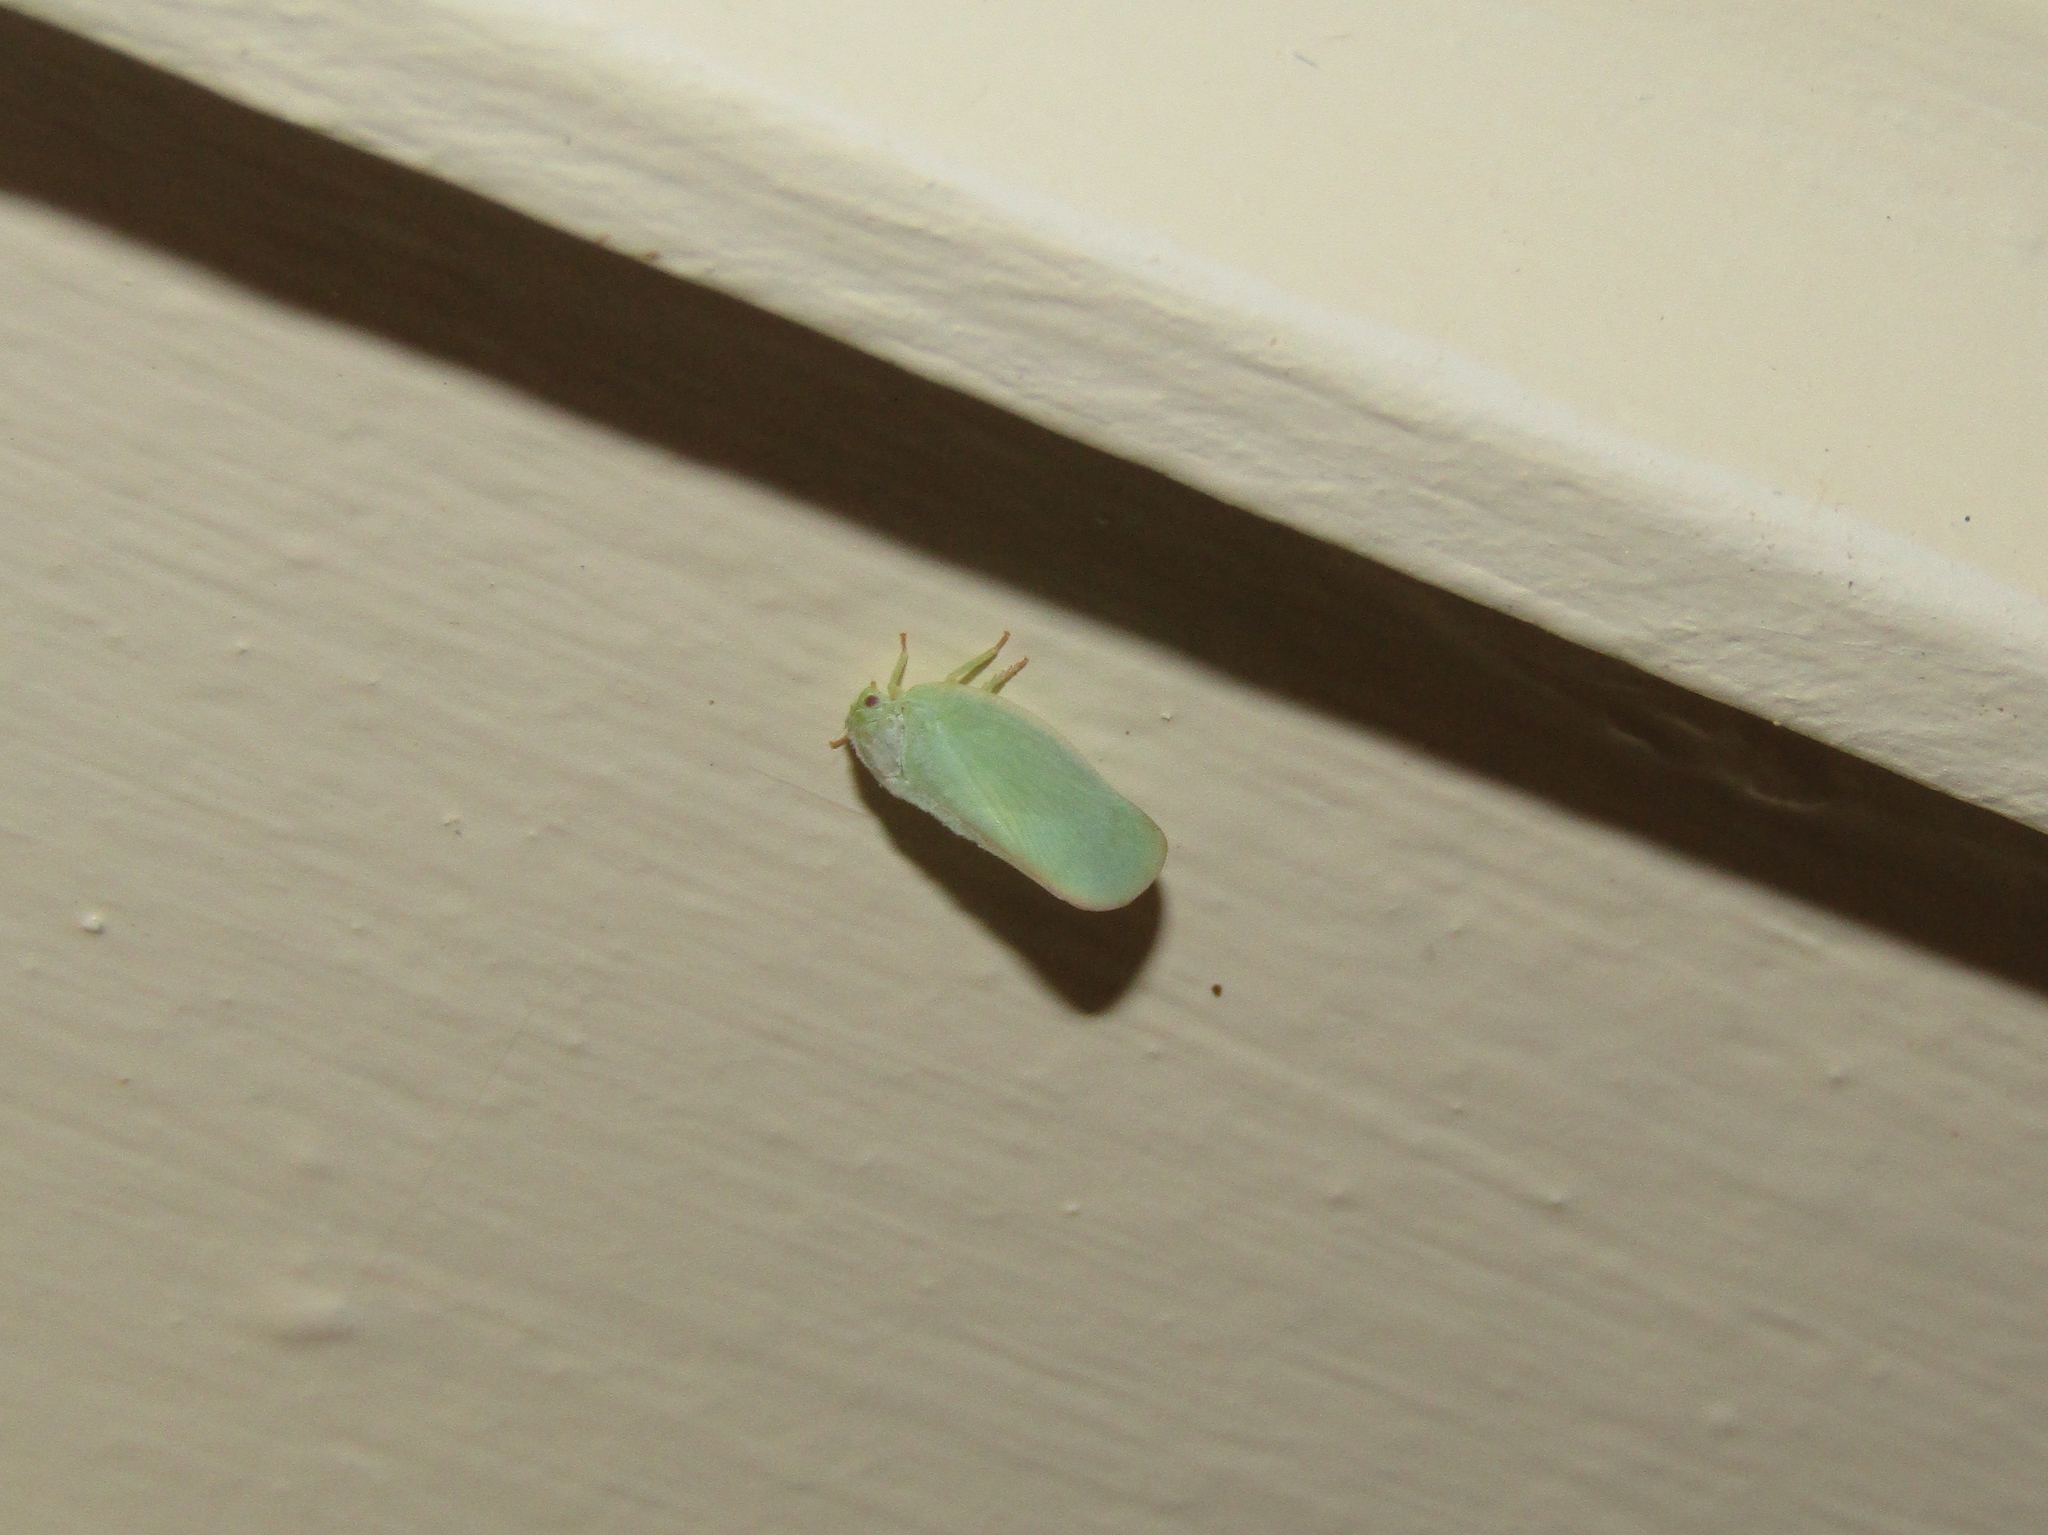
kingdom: Animalia
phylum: Arthropoda
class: Insecta
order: Hemiptera
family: Flatidae
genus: Ormenoides
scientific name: Ormenoides venusta
